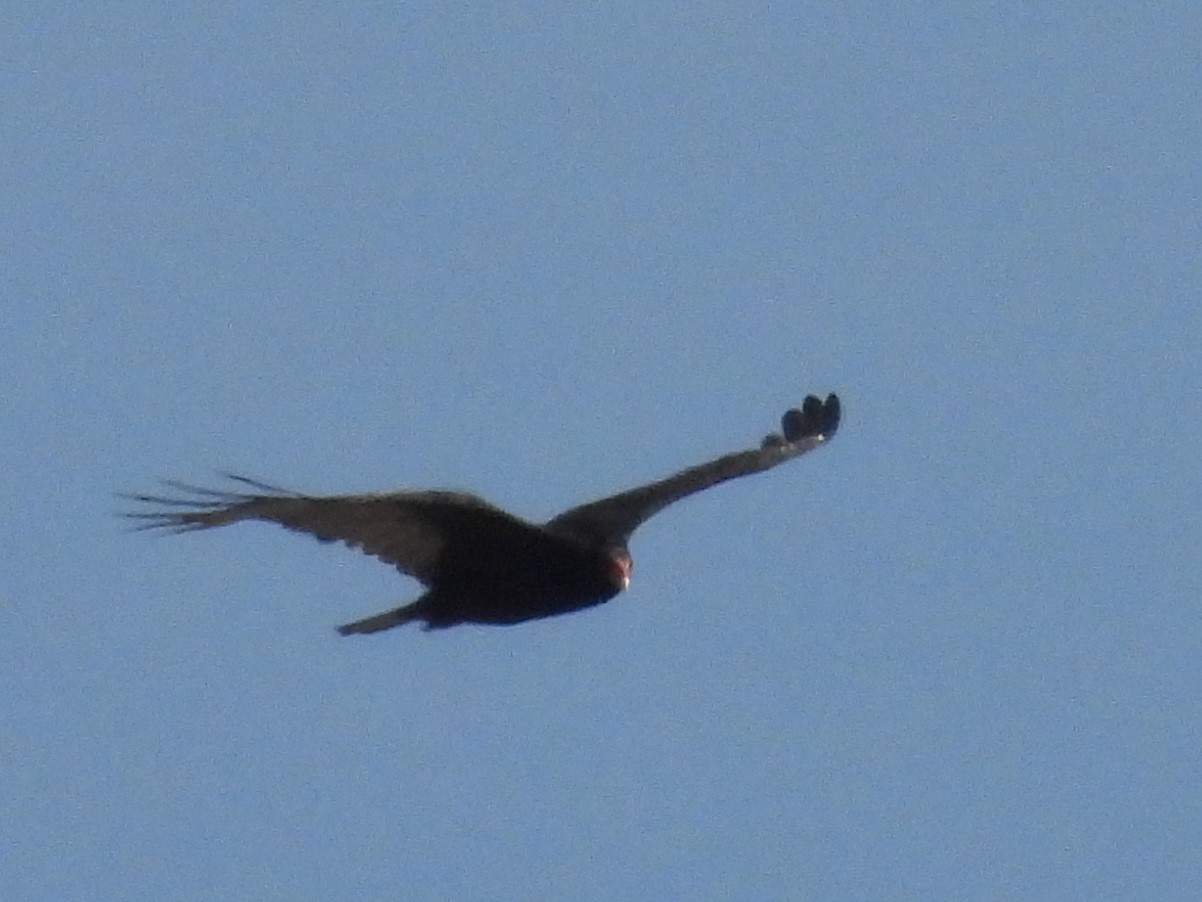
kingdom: Animalia
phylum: Chordata
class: Aves
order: Accipitriformes
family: Cathartidae
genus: Cathartes
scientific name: Cathartes aura
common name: Turkey vulture
